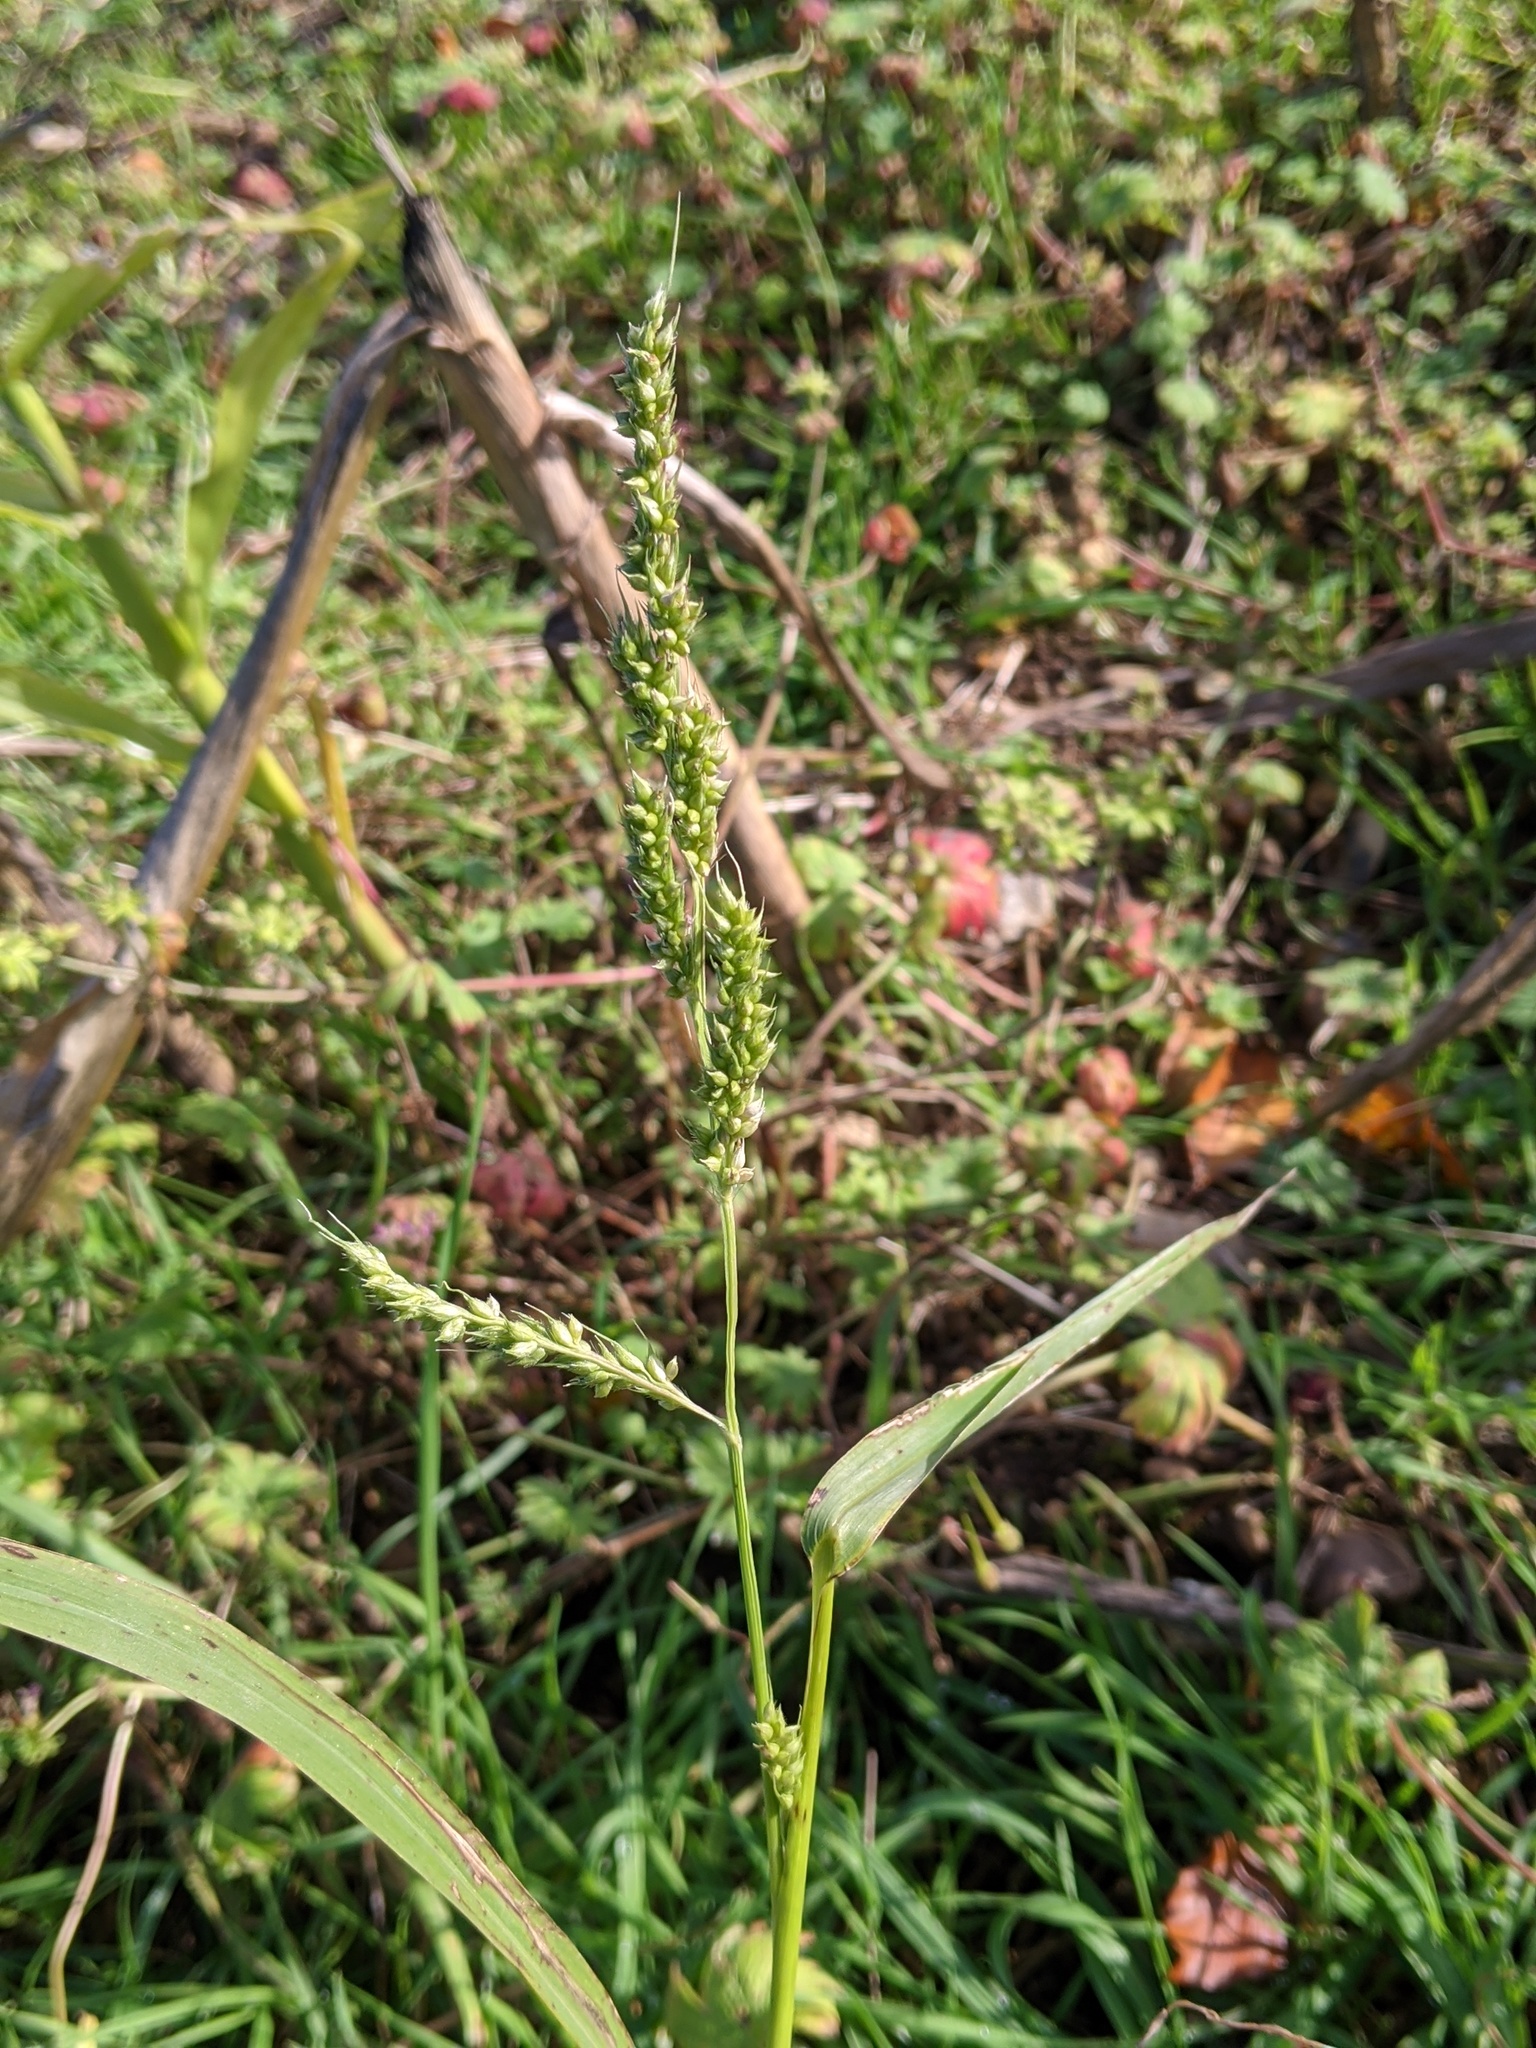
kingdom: Plantae
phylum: Tracheophyta
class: Liliopsida
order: Poales
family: Poaceae
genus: Echinochloa
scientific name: Echinochloa crus-galli
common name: Cockspur
